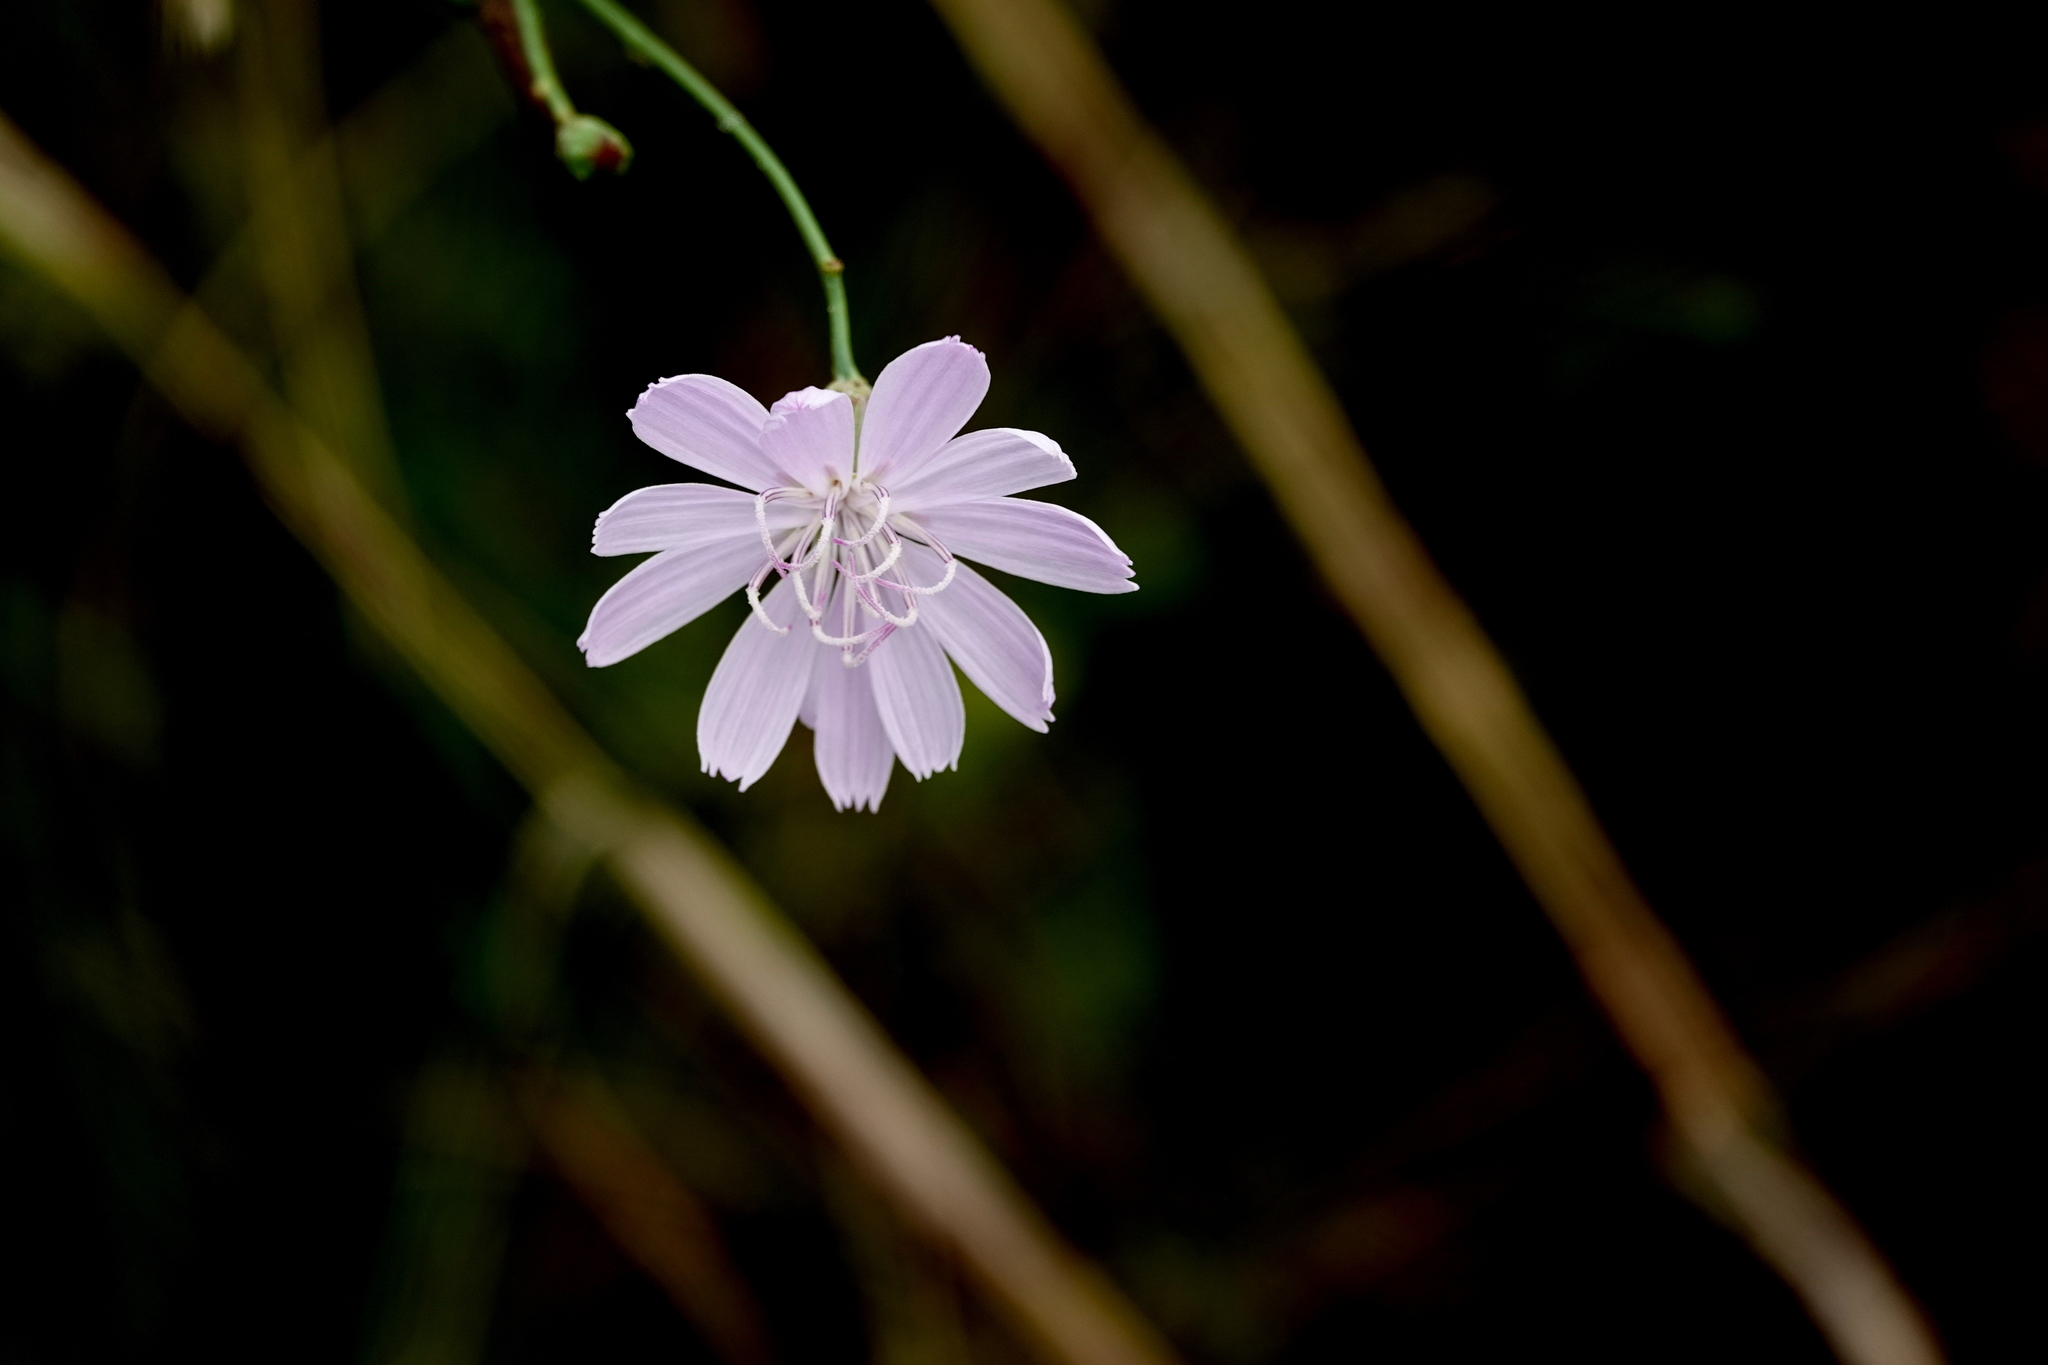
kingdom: Plantae
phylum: Tracheophyta
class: Magnoliopsida
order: Asterales
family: Asteraceae
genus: Lygodesmia
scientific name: Lygodesmia aphylla
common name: Rose-rush
